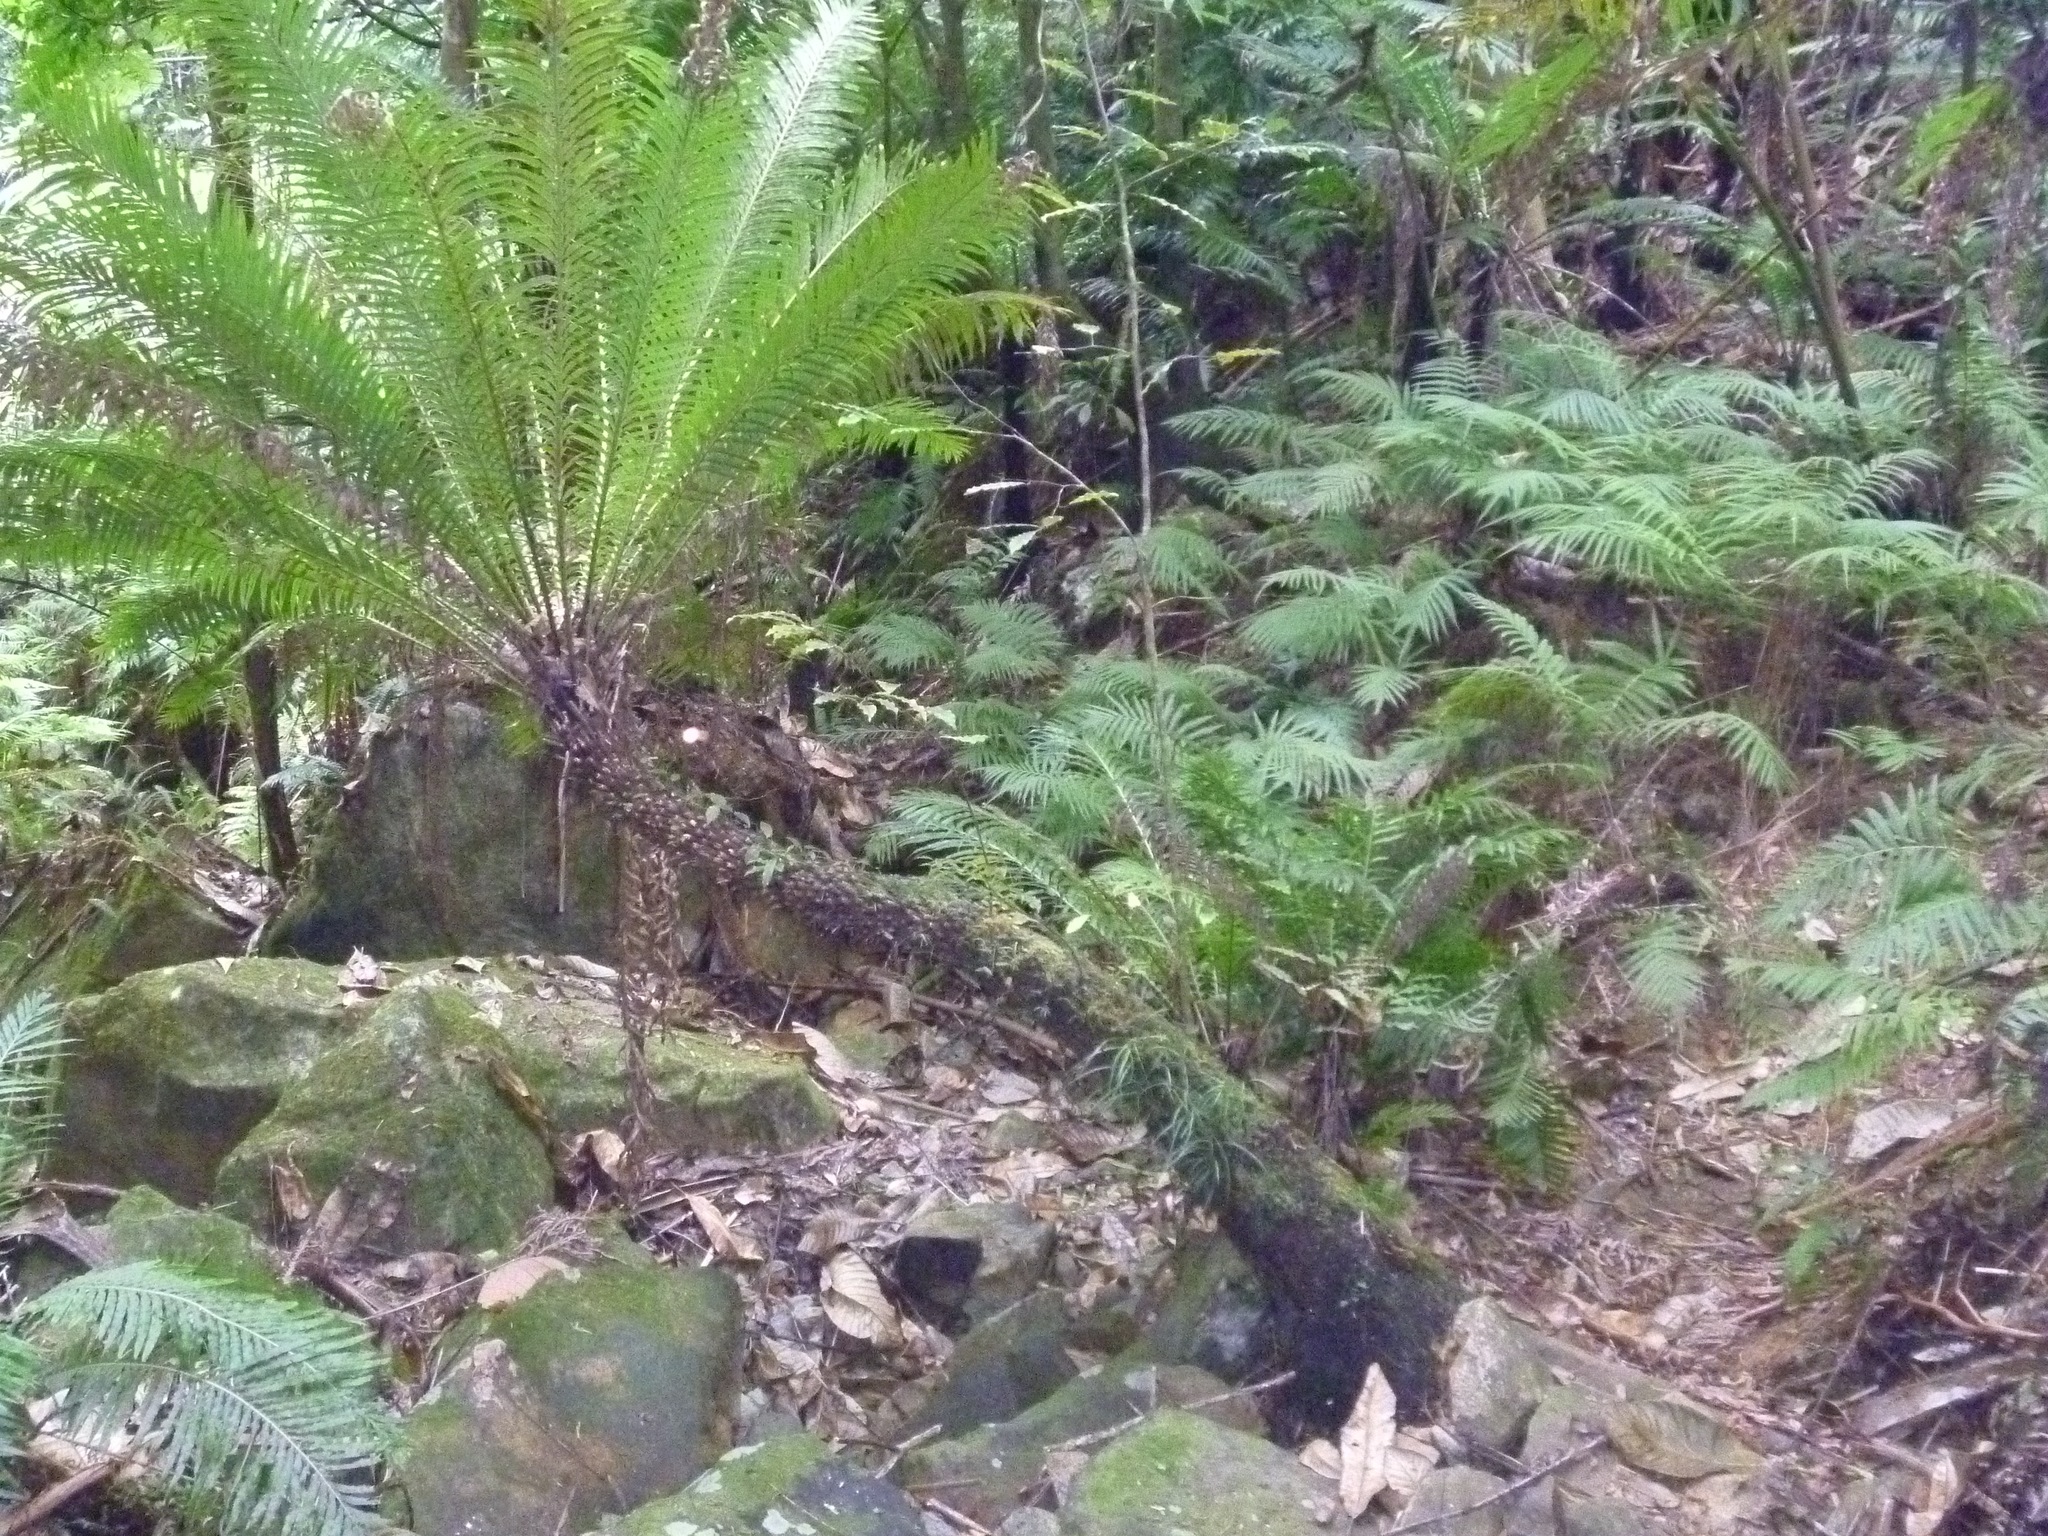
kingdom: Plantae
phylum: Tracheophyta
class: Polypodiopsida
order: Polypodiales
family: Blechnaceae
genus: Oceaniopteris
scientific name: Oceaniopteris gibba
